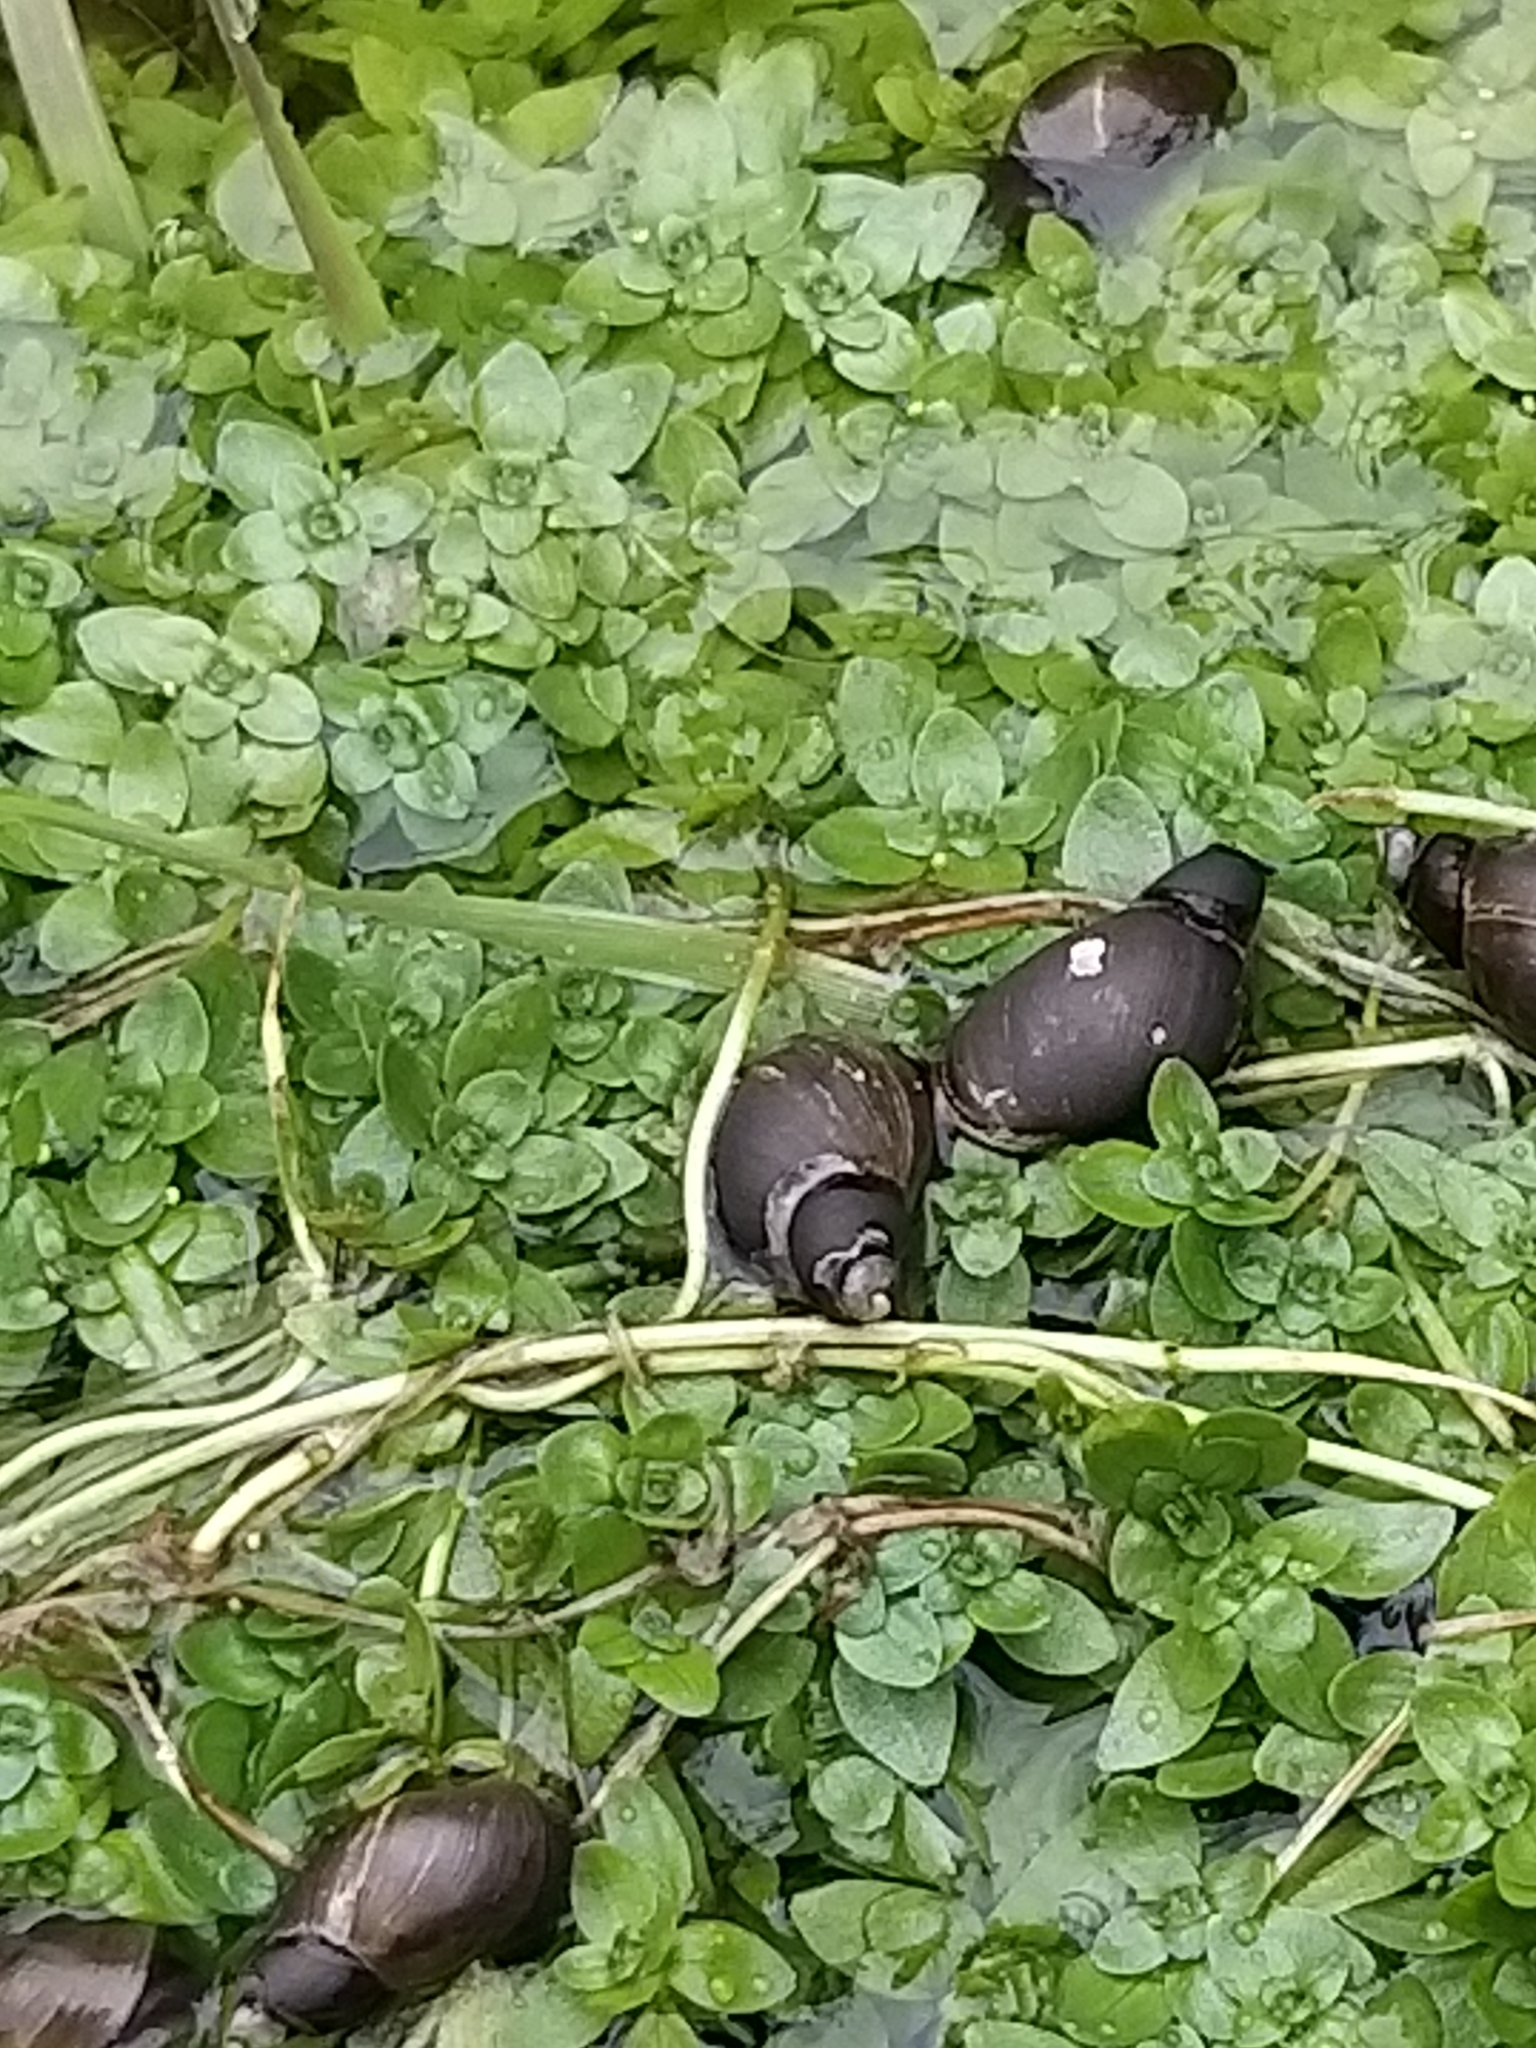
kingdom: Animalia
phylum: Mollusca
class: Gastropoda
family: Lymnaeidae
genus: Lymnaea
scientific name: Lymnaea stagnalis
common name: Great pond snail
